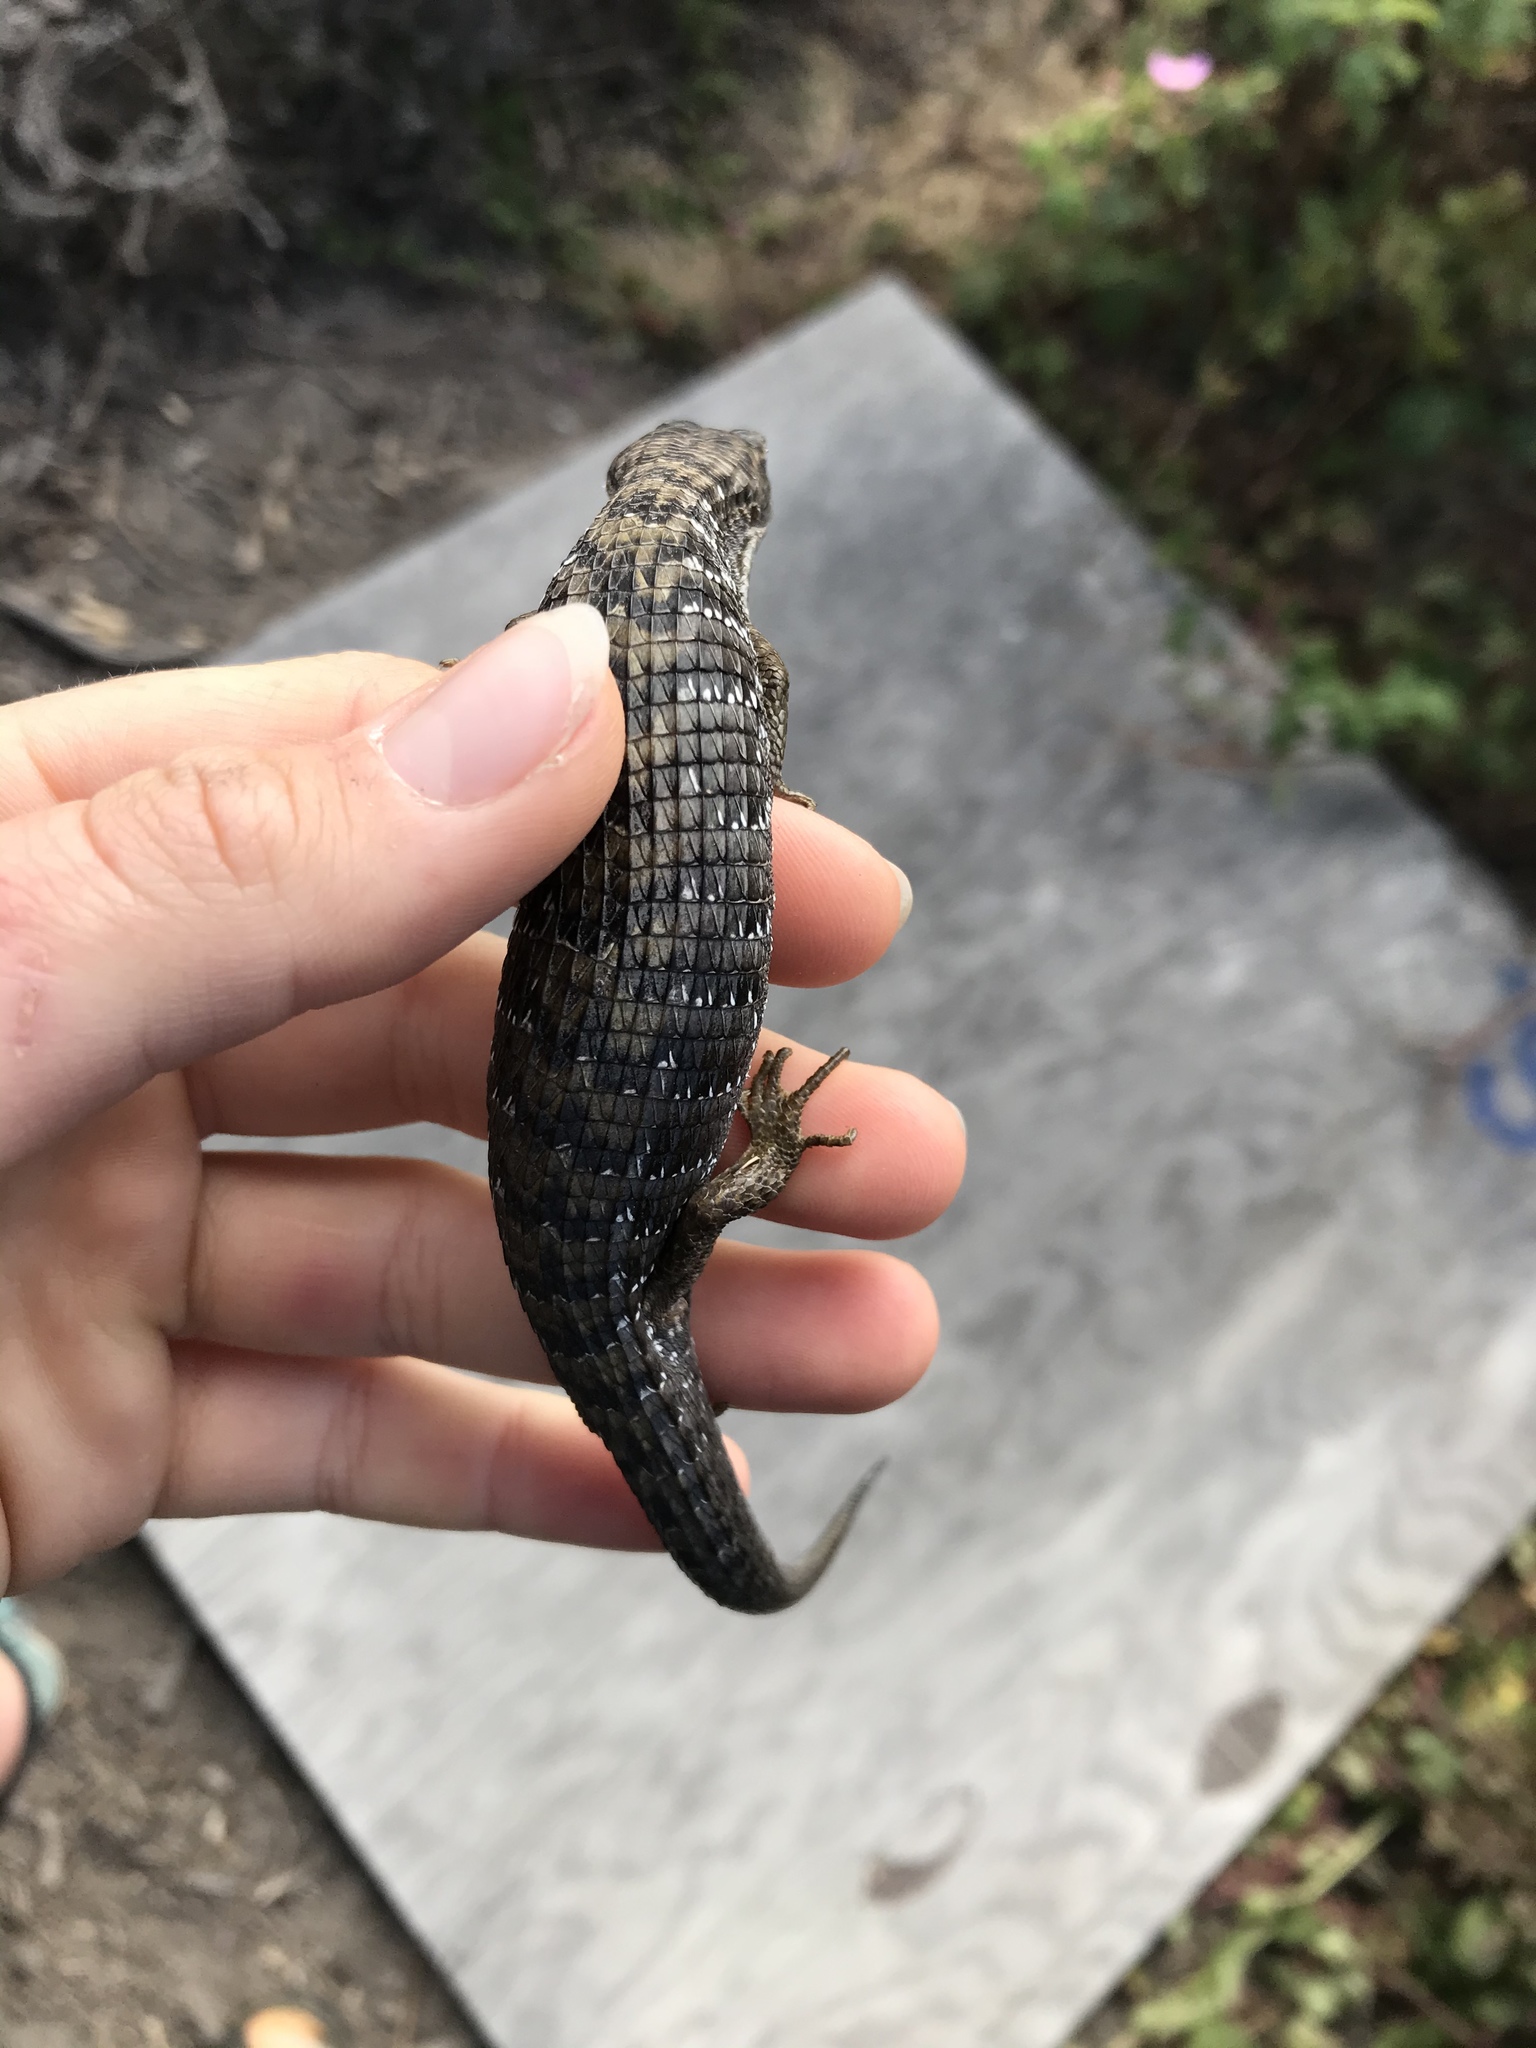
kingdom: Animalia
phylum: Chordata
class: Squamata
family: Anguidae
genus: Elgaria
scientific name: Elgaria multicarinata
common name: Southern alligator lizard
